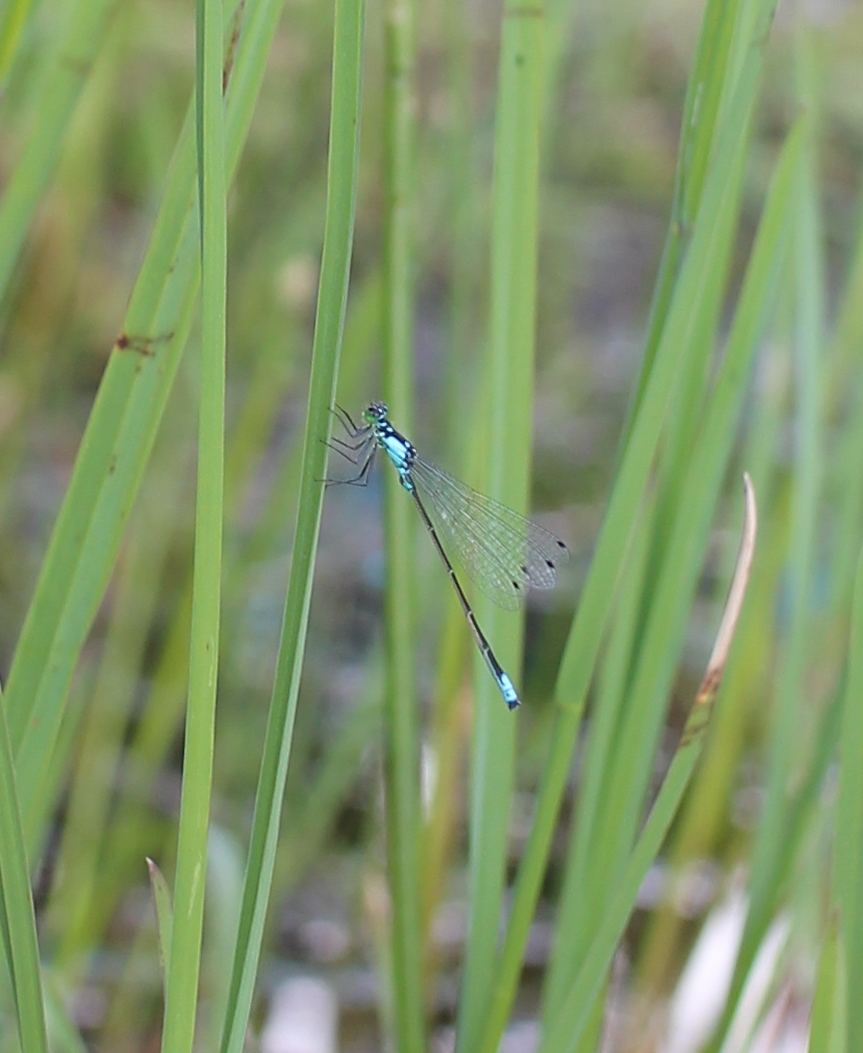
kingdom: Animalia
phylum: Arthropoda
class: Insecta
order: Odonata
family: Coenagrionidae
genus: Ischnura
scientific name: Ischnura cervula
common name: Pacific forktail
